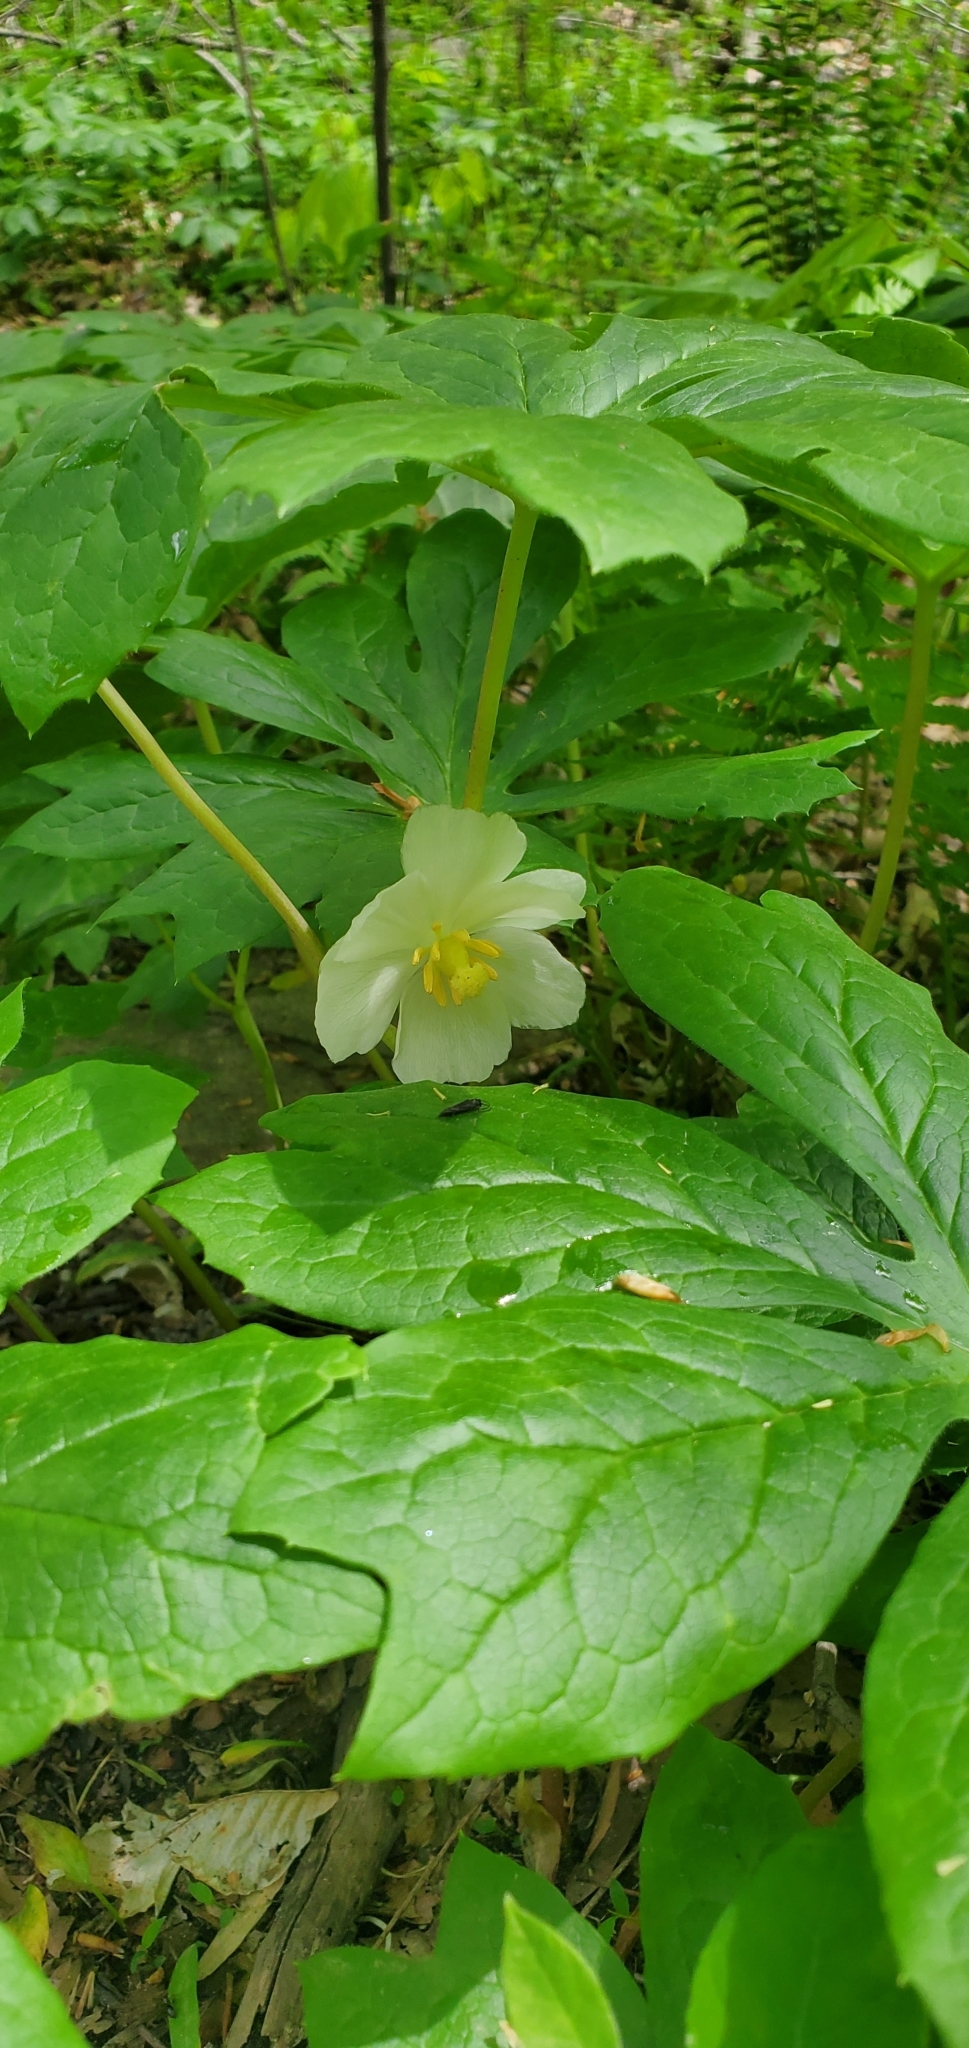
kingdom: Plantae
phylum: Tracheophyta
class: Magnoliopsida
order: Ranunculales
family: Berberidaceae
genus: Podophyllum
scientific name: Podophyllum peltatum
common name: Wild mandrake
